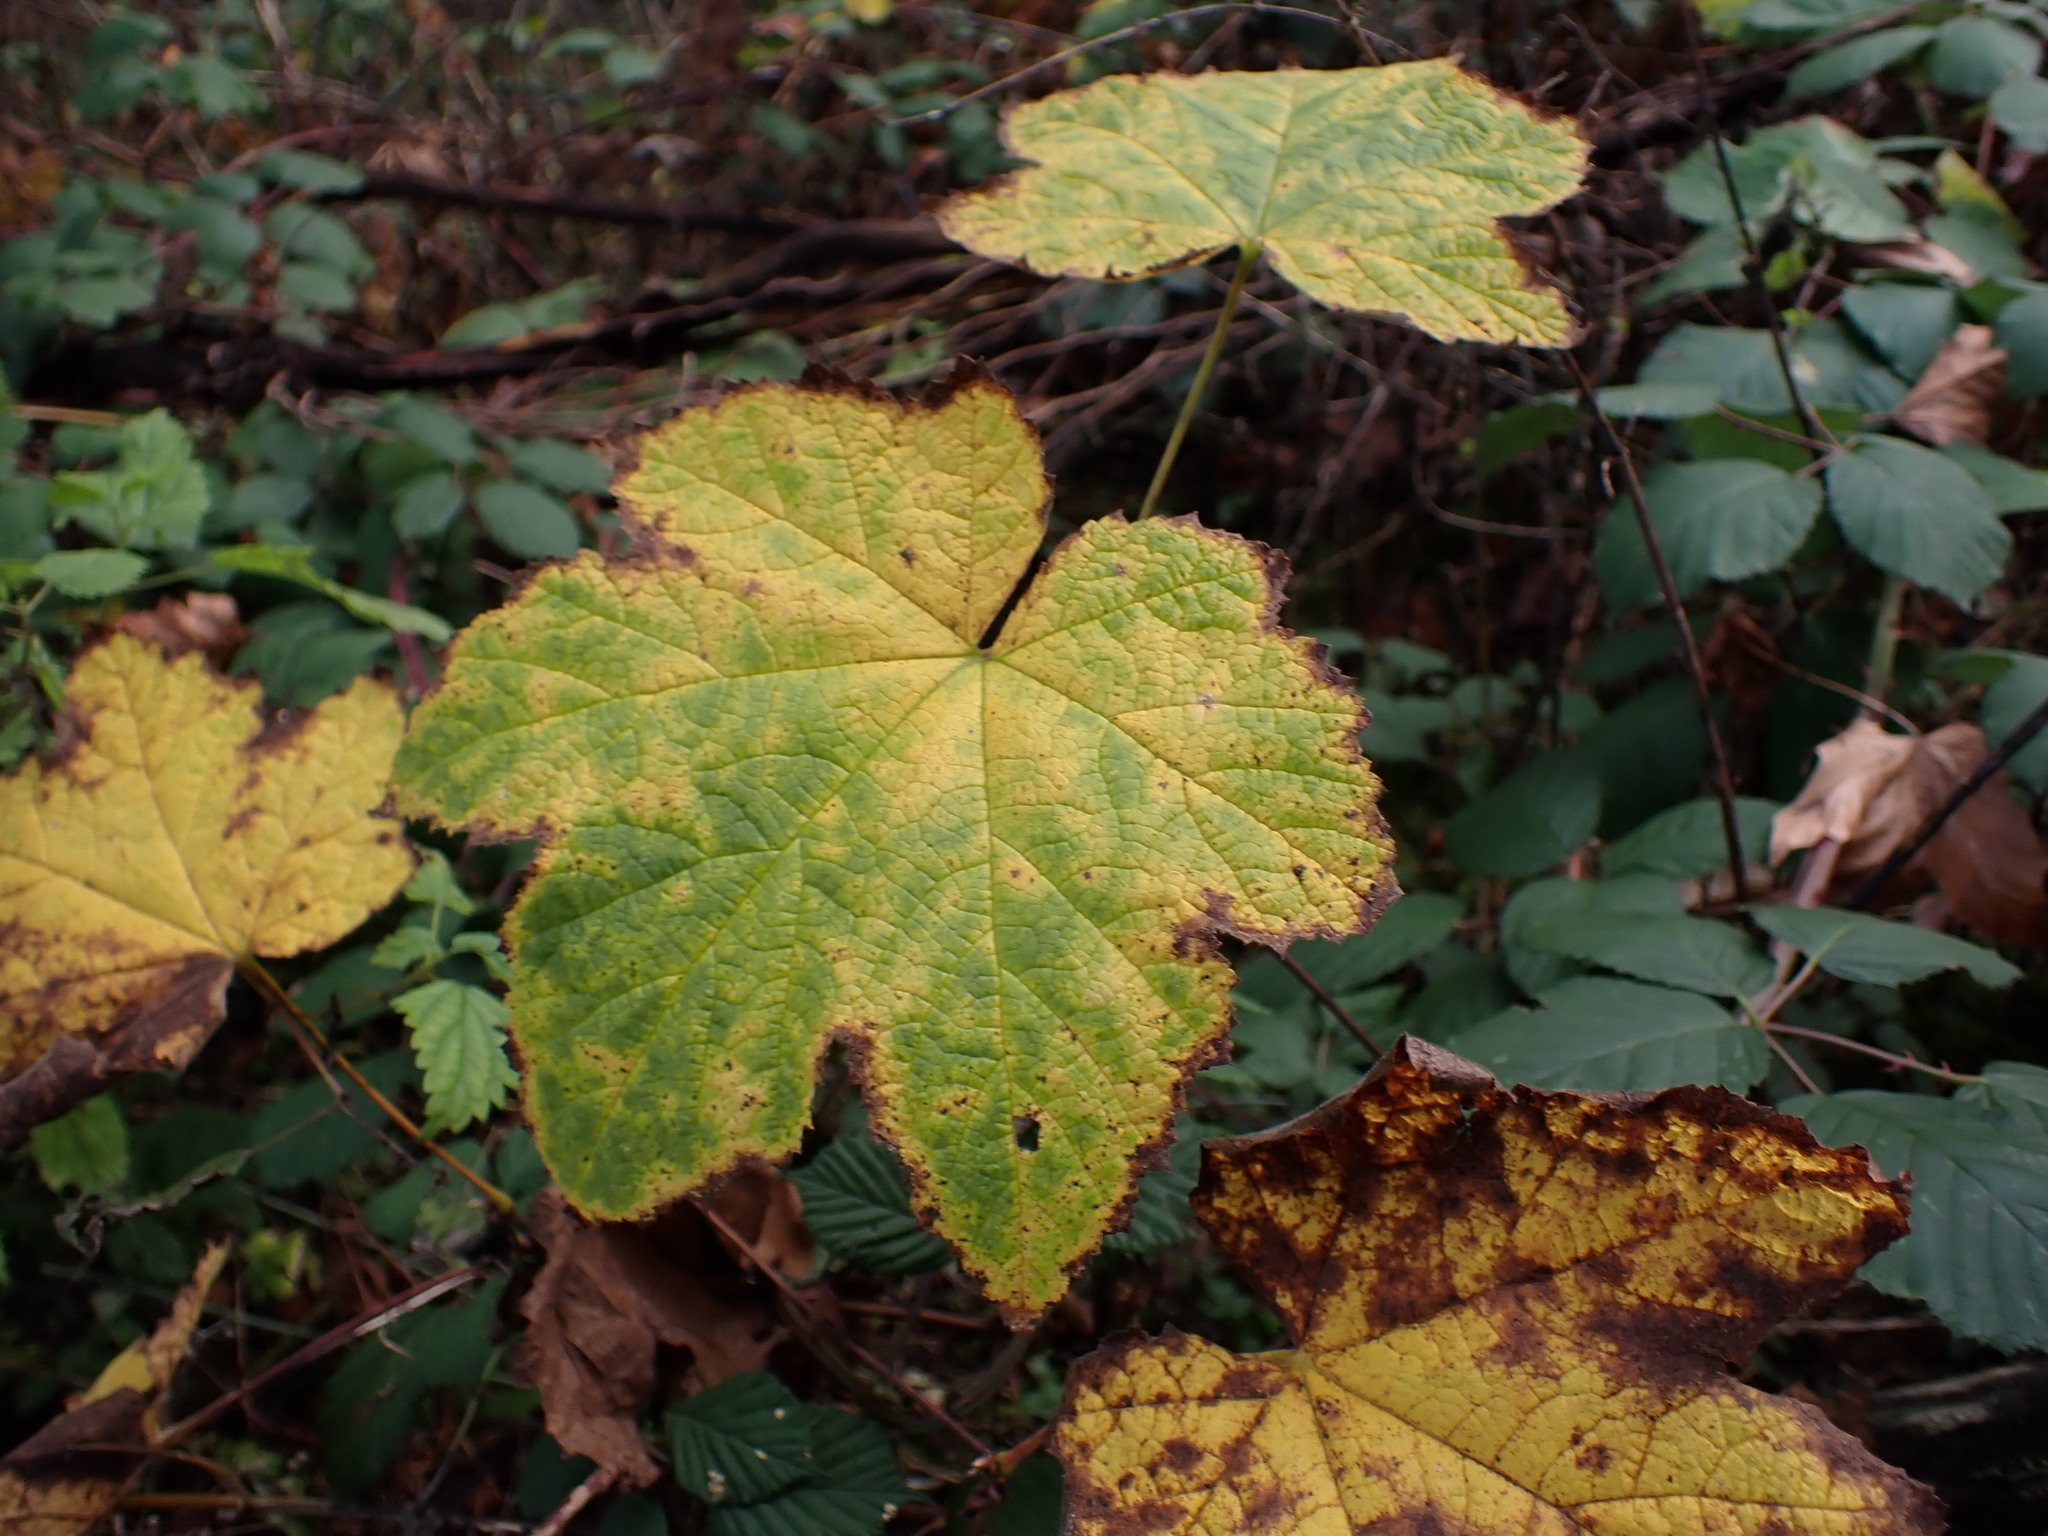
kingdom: Plantae
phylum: Tracheophyta
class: Magnoliopsida
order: Rosales
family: Rosaceae
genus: Rubus
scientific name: Rubus parviflorus
